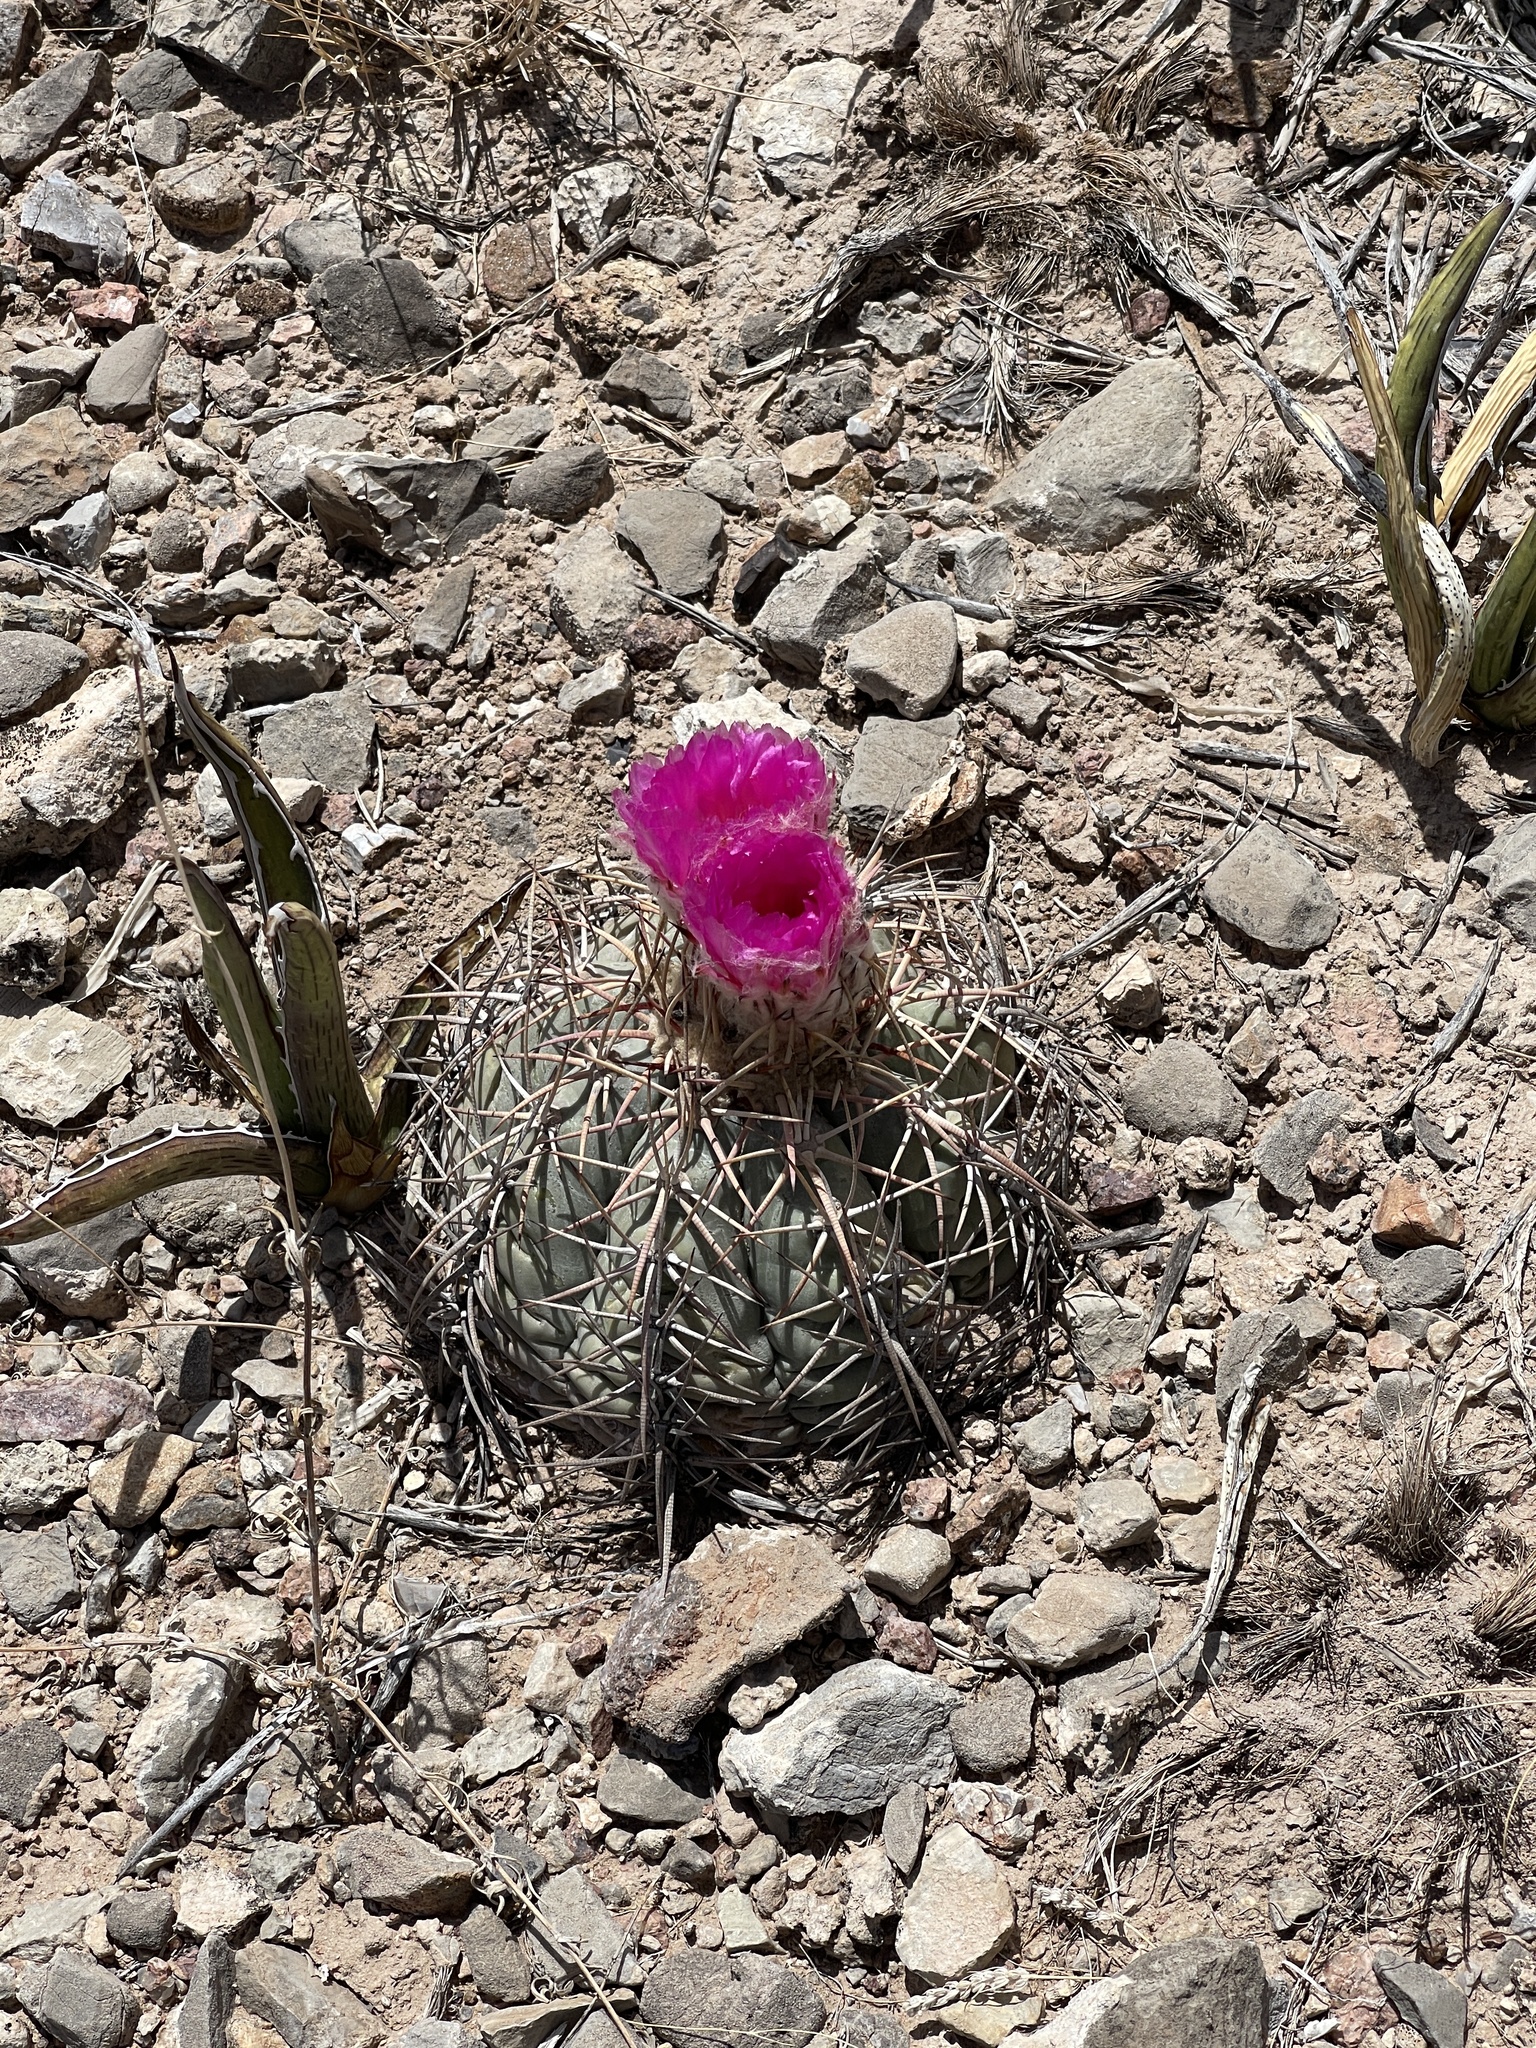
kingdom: Plantae
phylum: Tracheophyta
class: Magnoliopsida
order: Caryophyllales
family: Cactaceae
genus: Echinocactus
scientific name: Echinocactus horizonthalonius
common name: Devilshead
